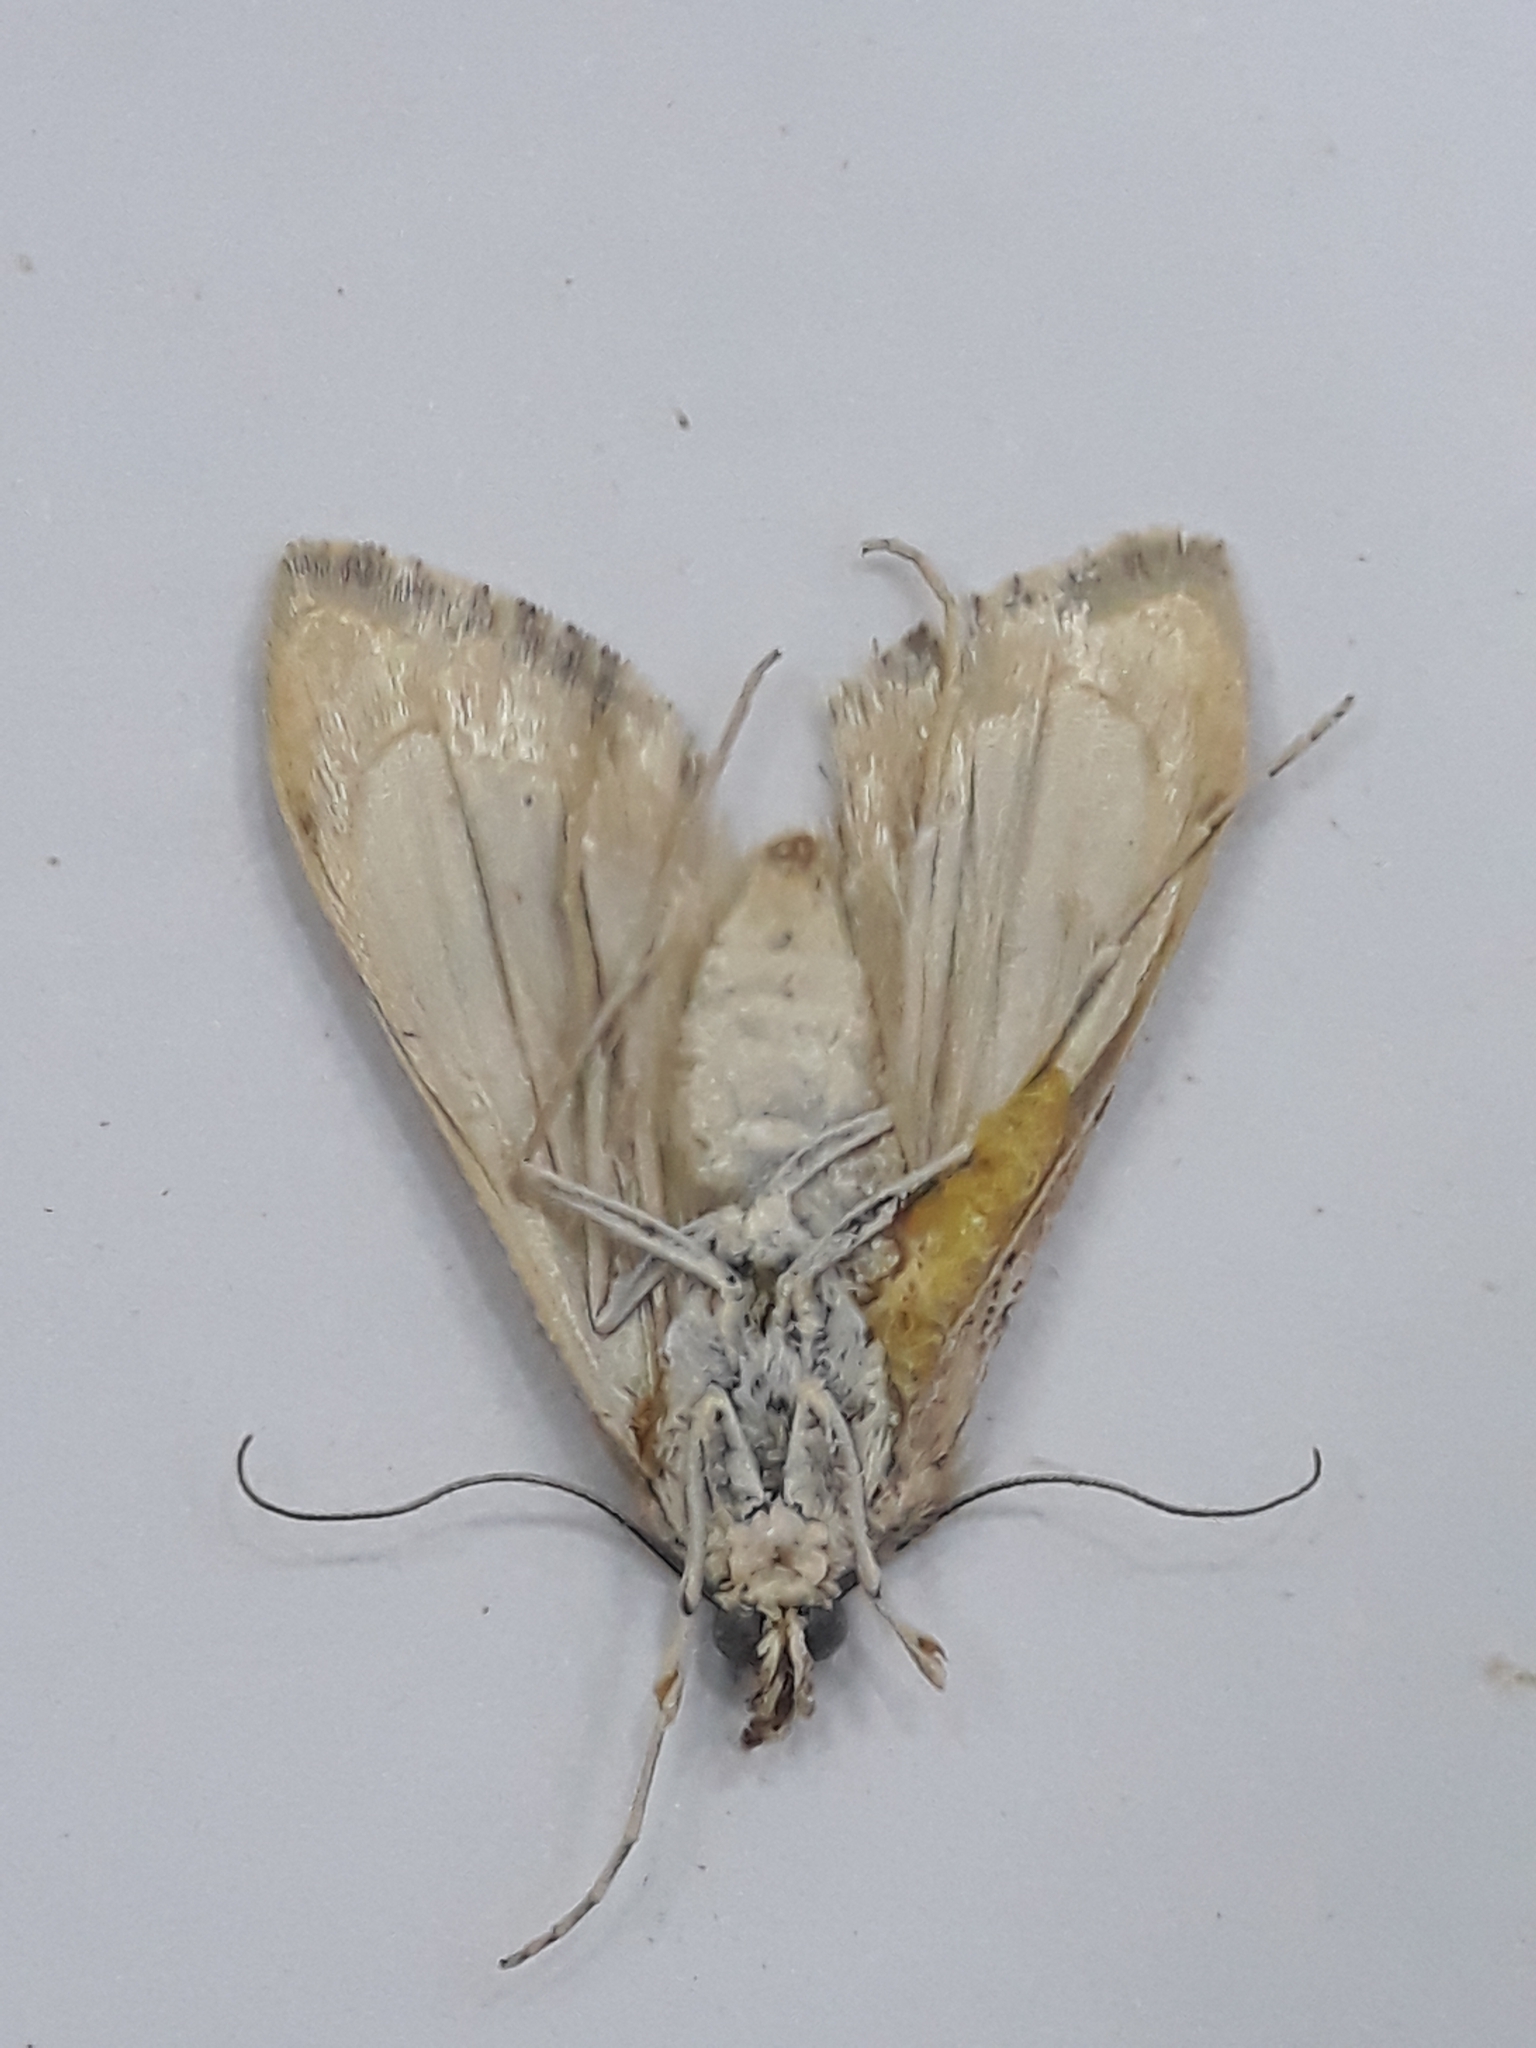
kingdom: Animalia
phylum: Arthropoda
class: Insecta
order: Lepidoptera
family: Crambidae
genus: Cornifrons
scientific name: Cornifrons ulceratalis
